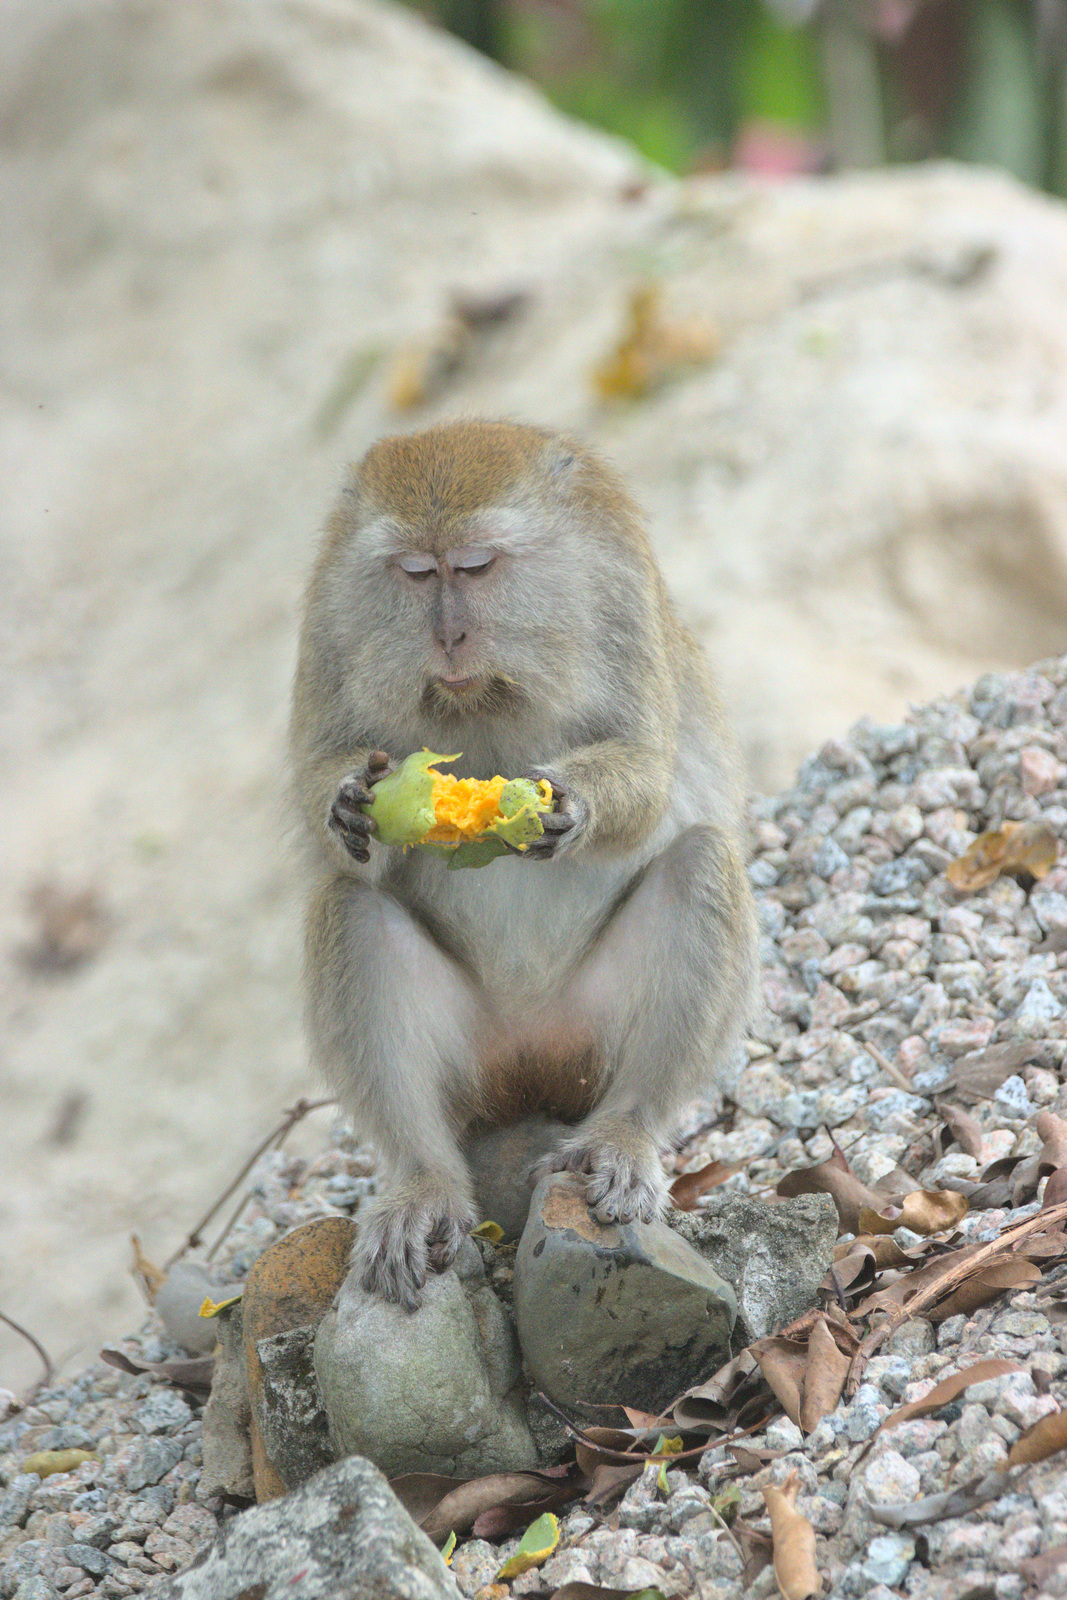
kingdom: Animalia
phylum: Chordata
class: Mammalia
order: Primates
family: Cercopithecidae
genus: Macaca
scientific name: Macaca fascicularis
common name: Crab-eating macaque
